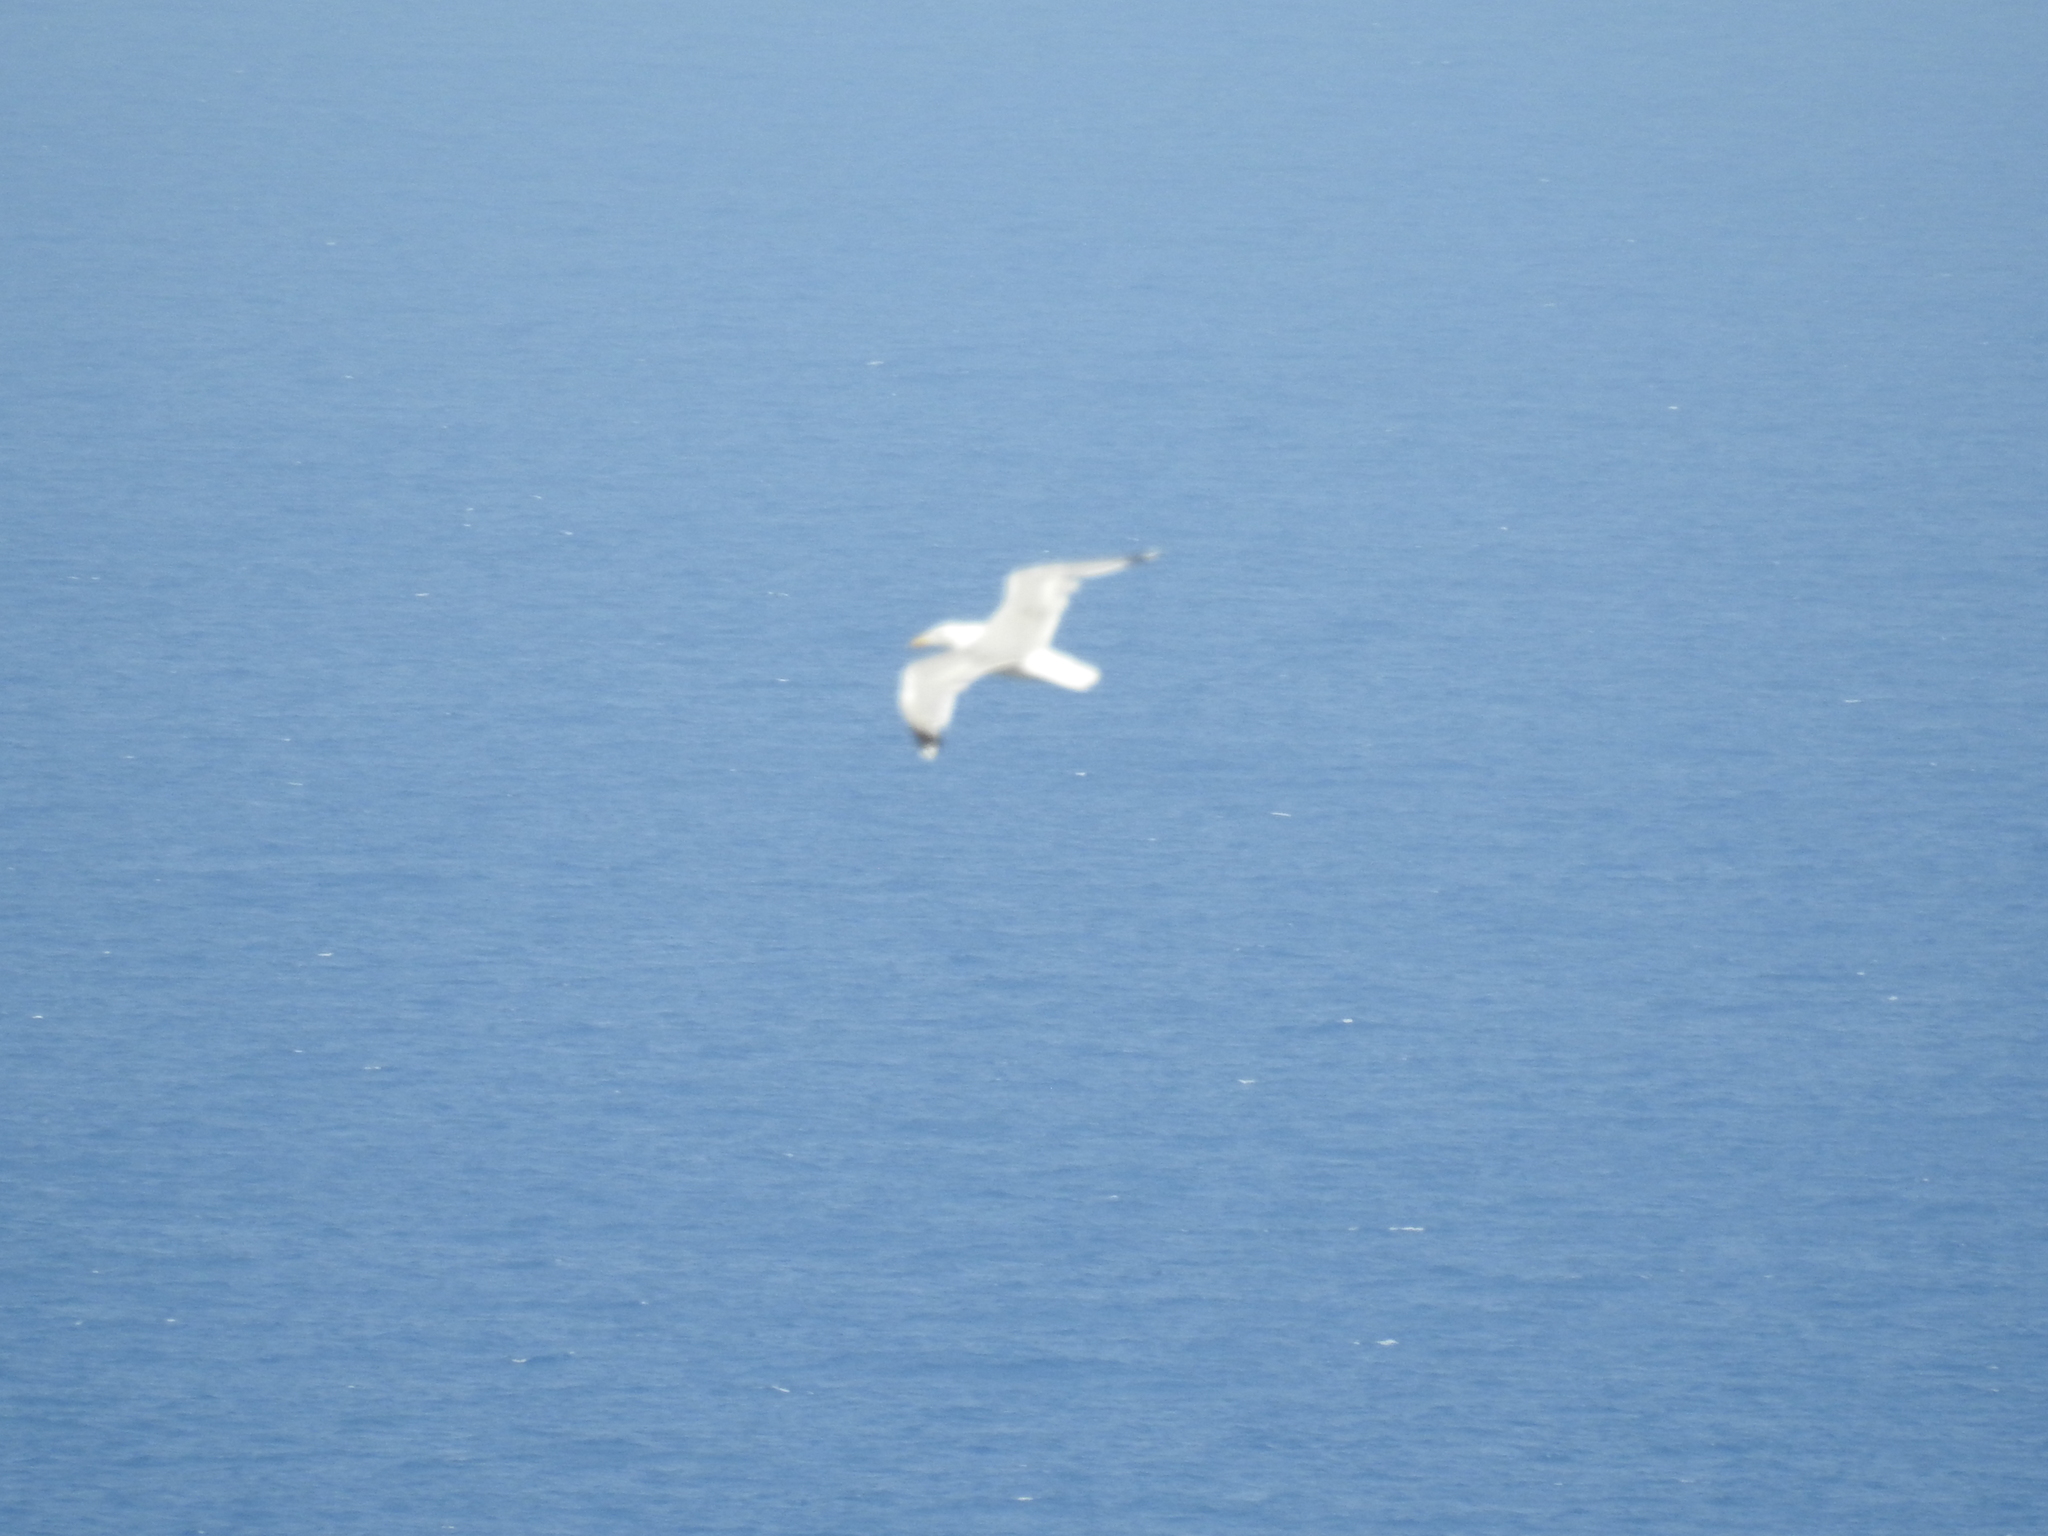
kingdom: Animalia
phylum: Chordata
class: Aves
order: Charadriiformes
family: Laridae
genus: Larus
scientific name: Larus michahellis
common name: Yellow-legged gull
